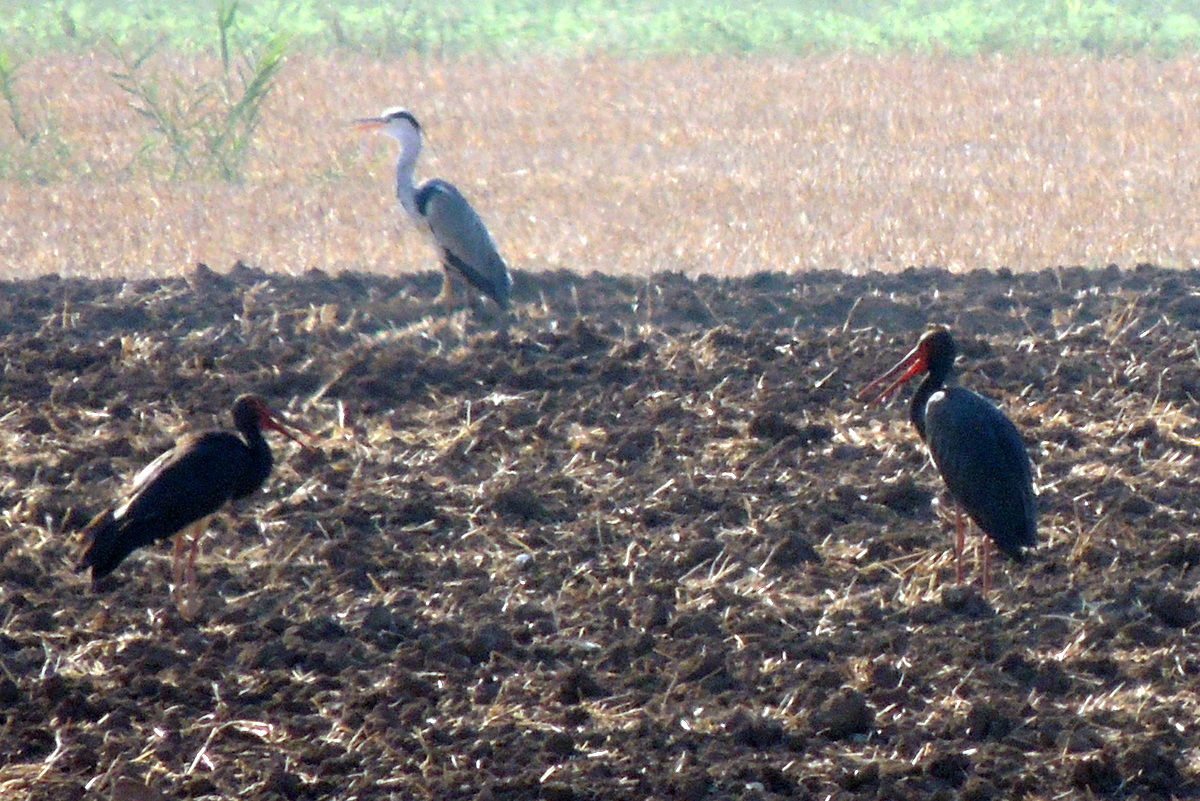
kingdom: Animalia
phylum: Chordata
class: Aves
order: Ciconiiformes
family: Ciconiidae
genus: Ciconia
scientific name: Ciconia nigra
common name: Black stork
